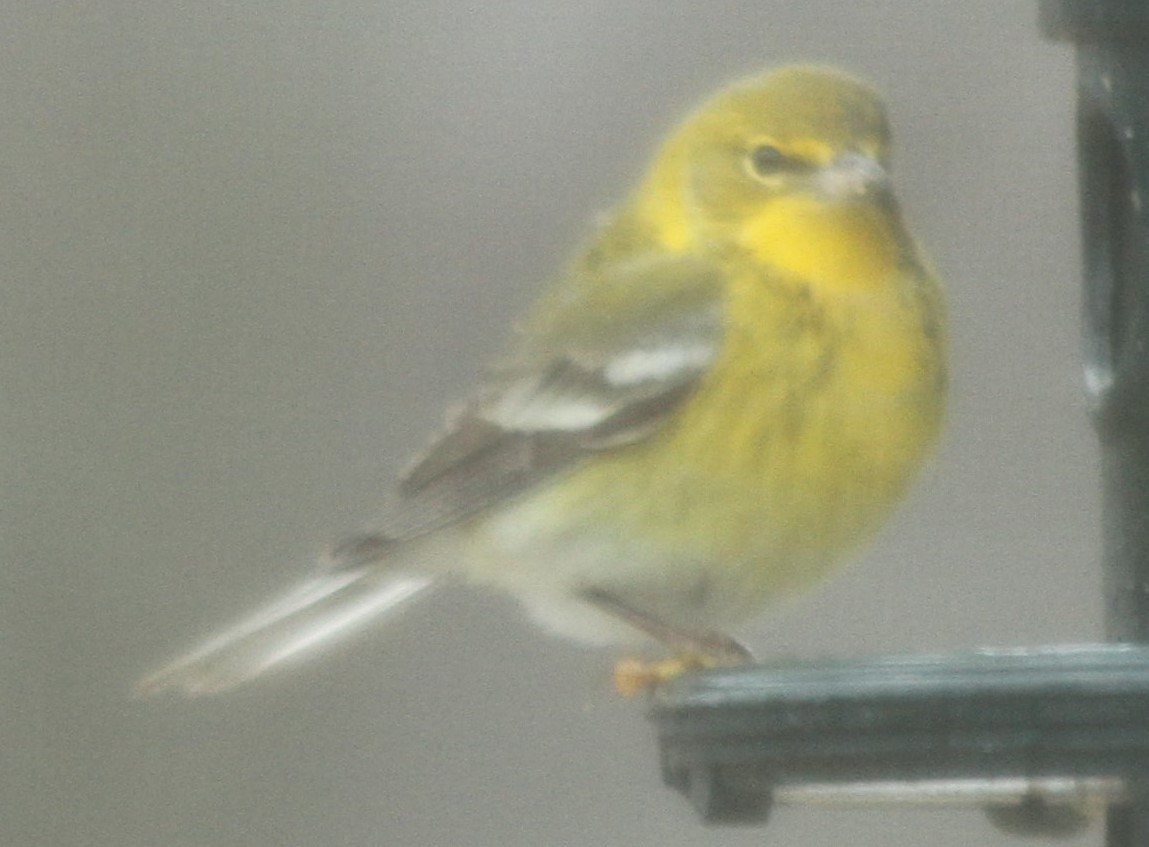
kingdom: Animalia
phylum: Chordata
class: Aves
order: Passeriformes
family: Parulidae
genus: Setophaga
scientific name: Setophaga pinus
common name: Pine warbler
